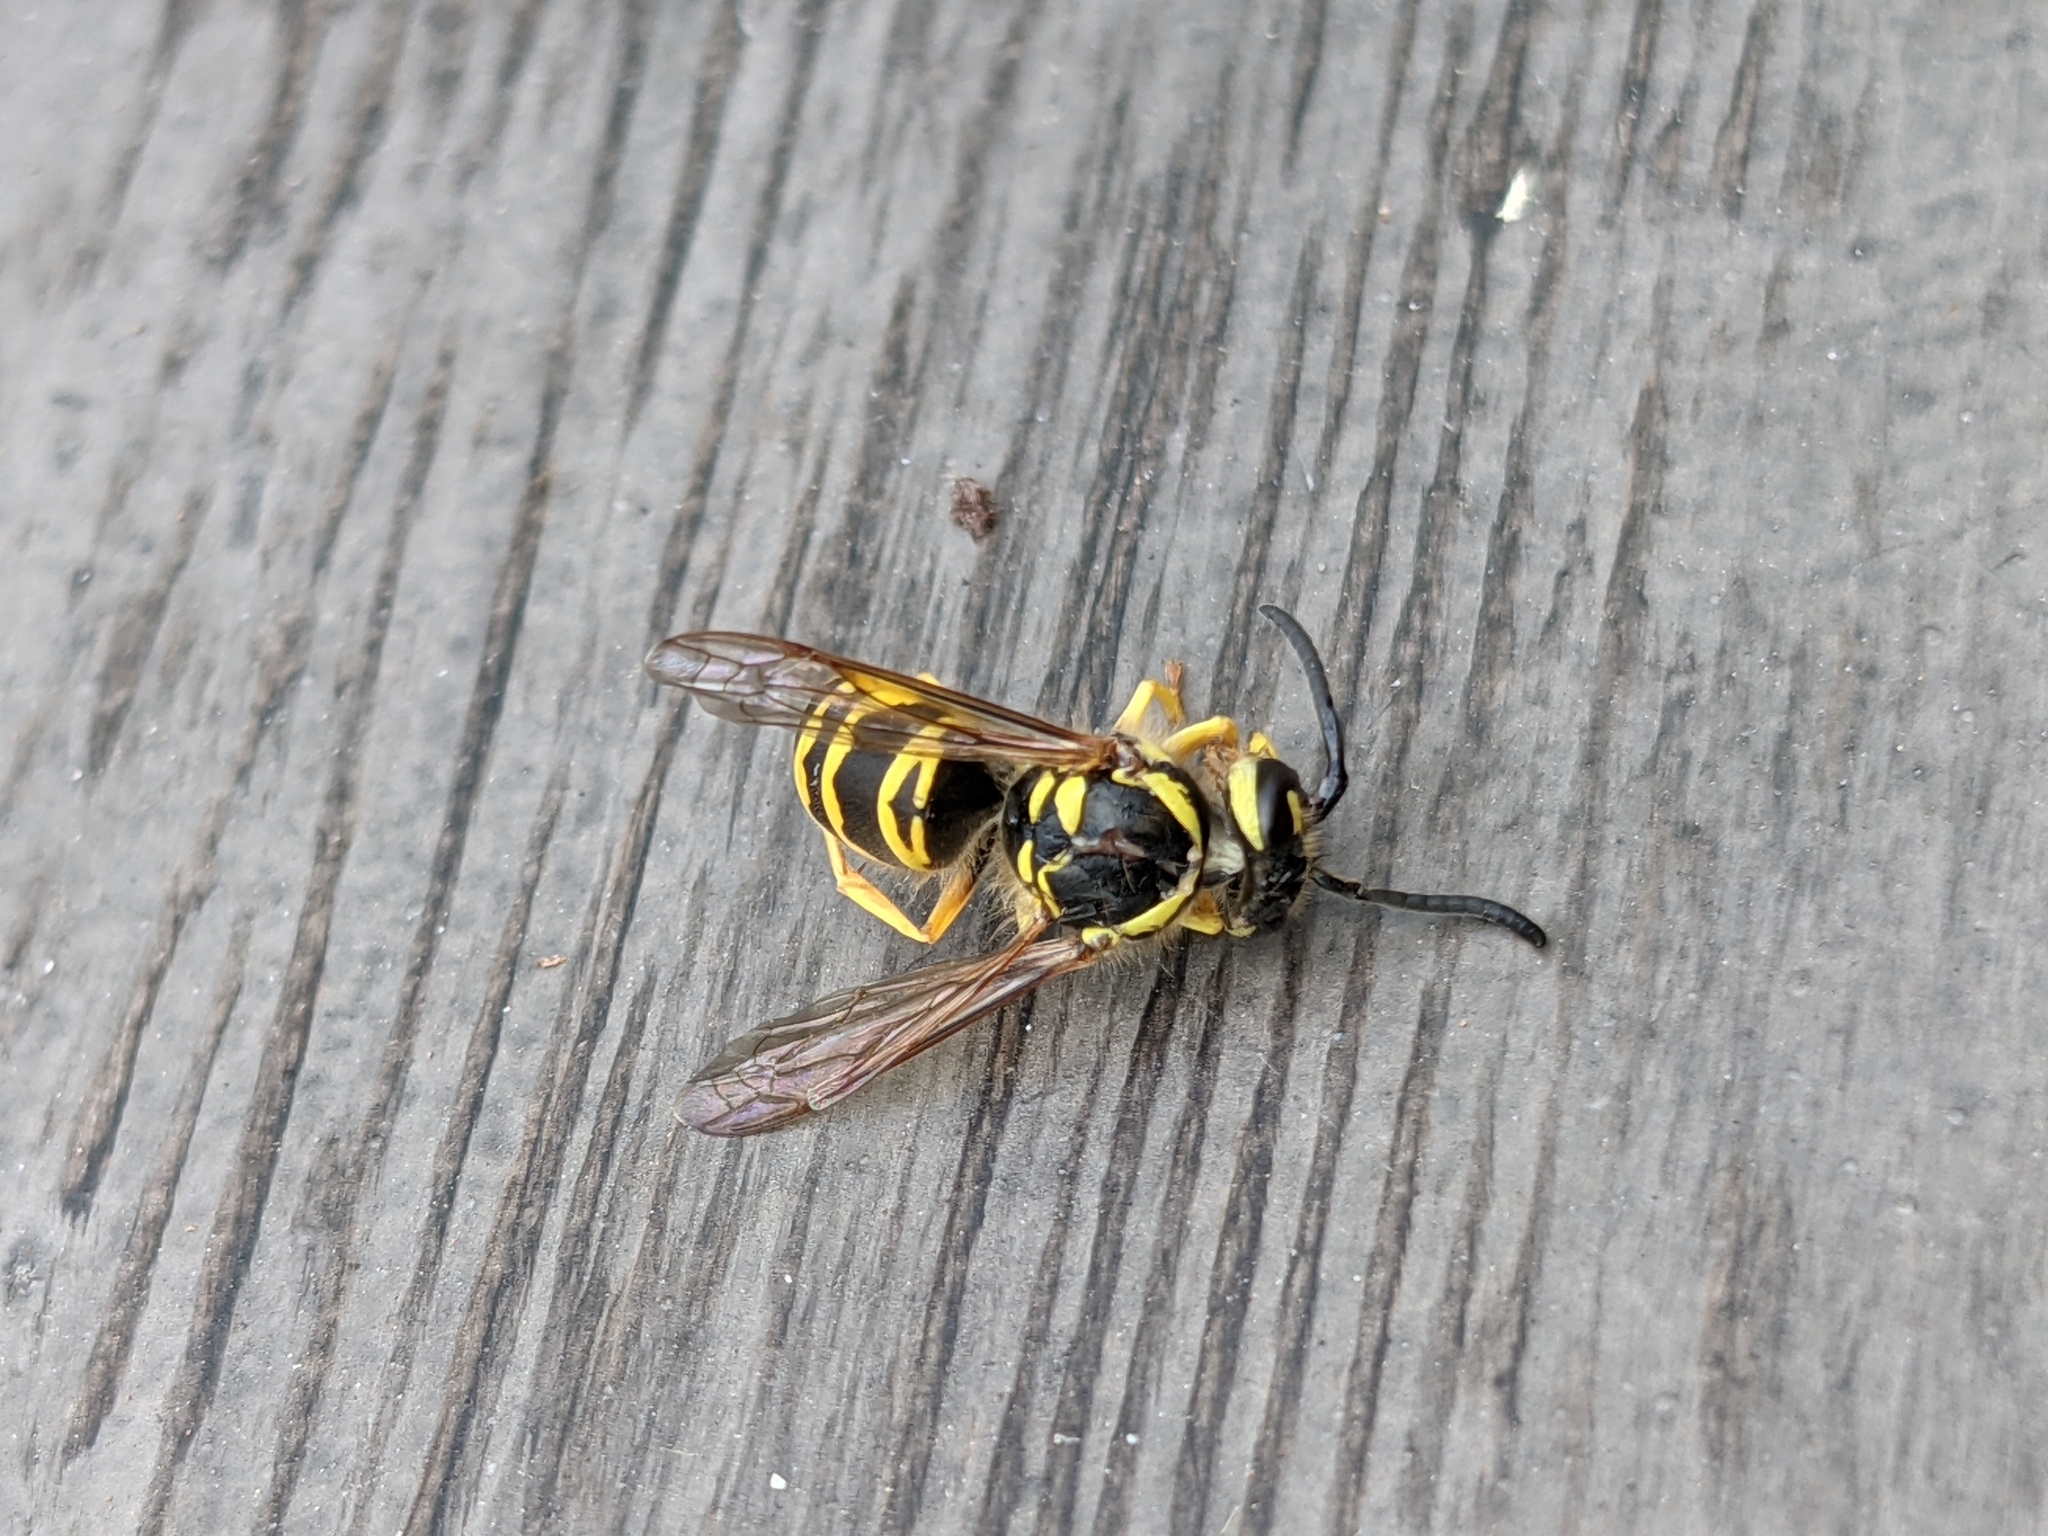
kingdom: Animalia
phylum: Arthropoda
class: Insecta
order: Hymenoptera
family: Vespidae
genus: Vespula
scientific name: Vespula maculifrons
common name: Eastern yellowjacket
